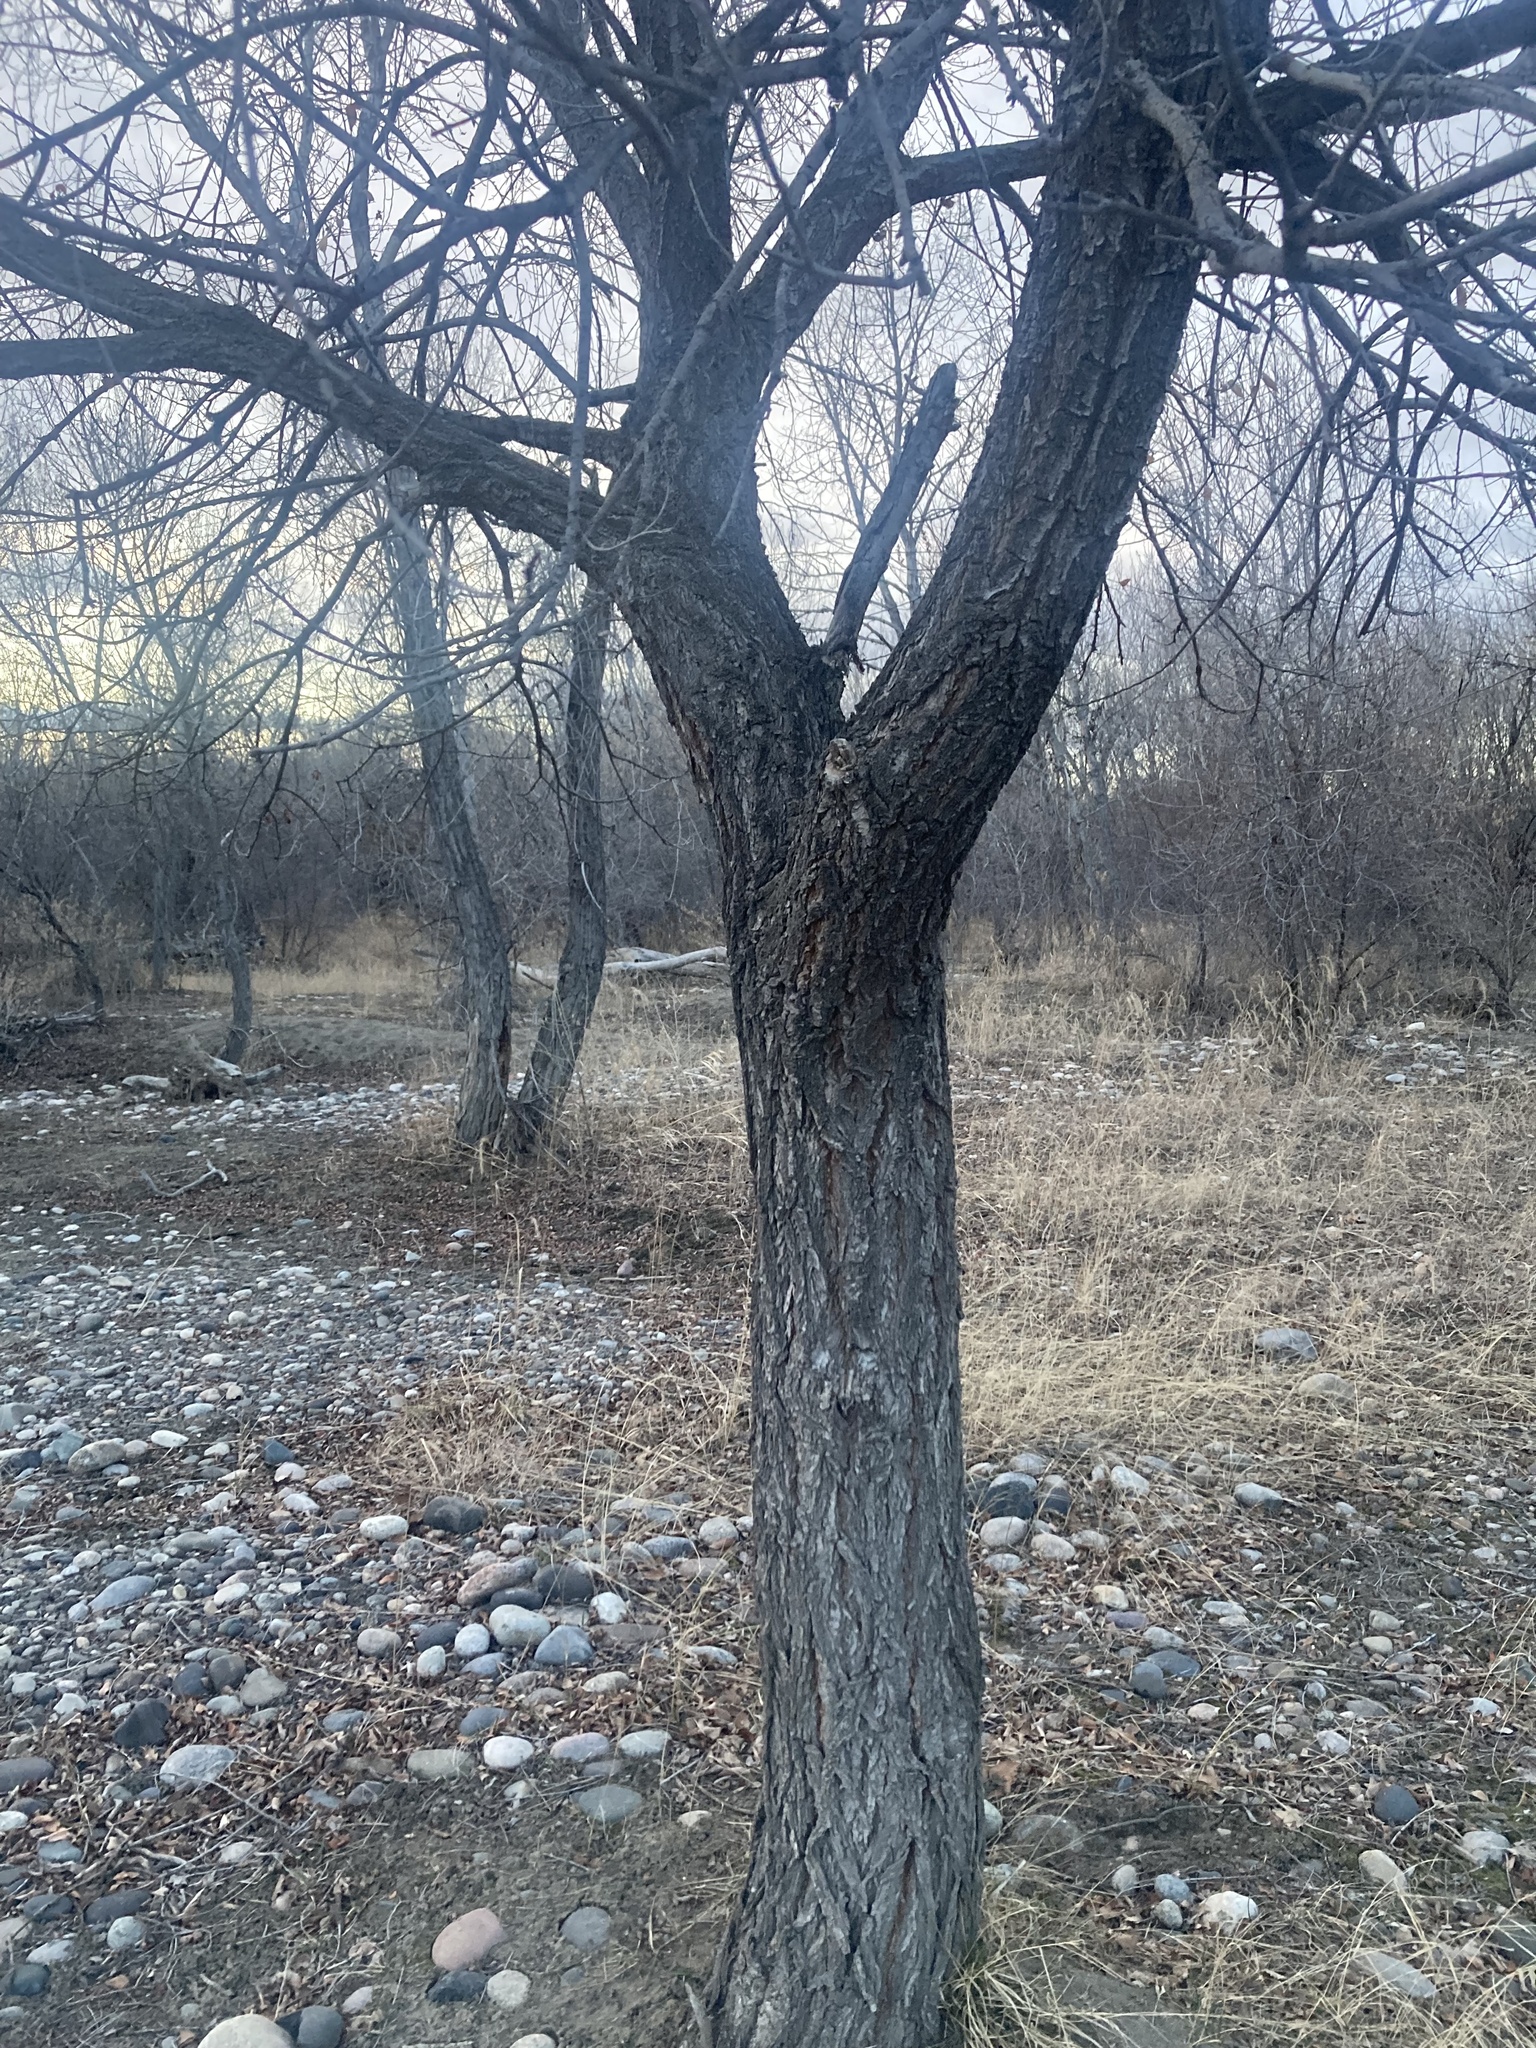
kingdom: Plantae
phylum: Tracheophyta
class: Magnoliopsida
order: Rosales
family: Ulmaceae
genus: Ulmus
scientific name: Ulmus pumila
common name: Siberian elm
